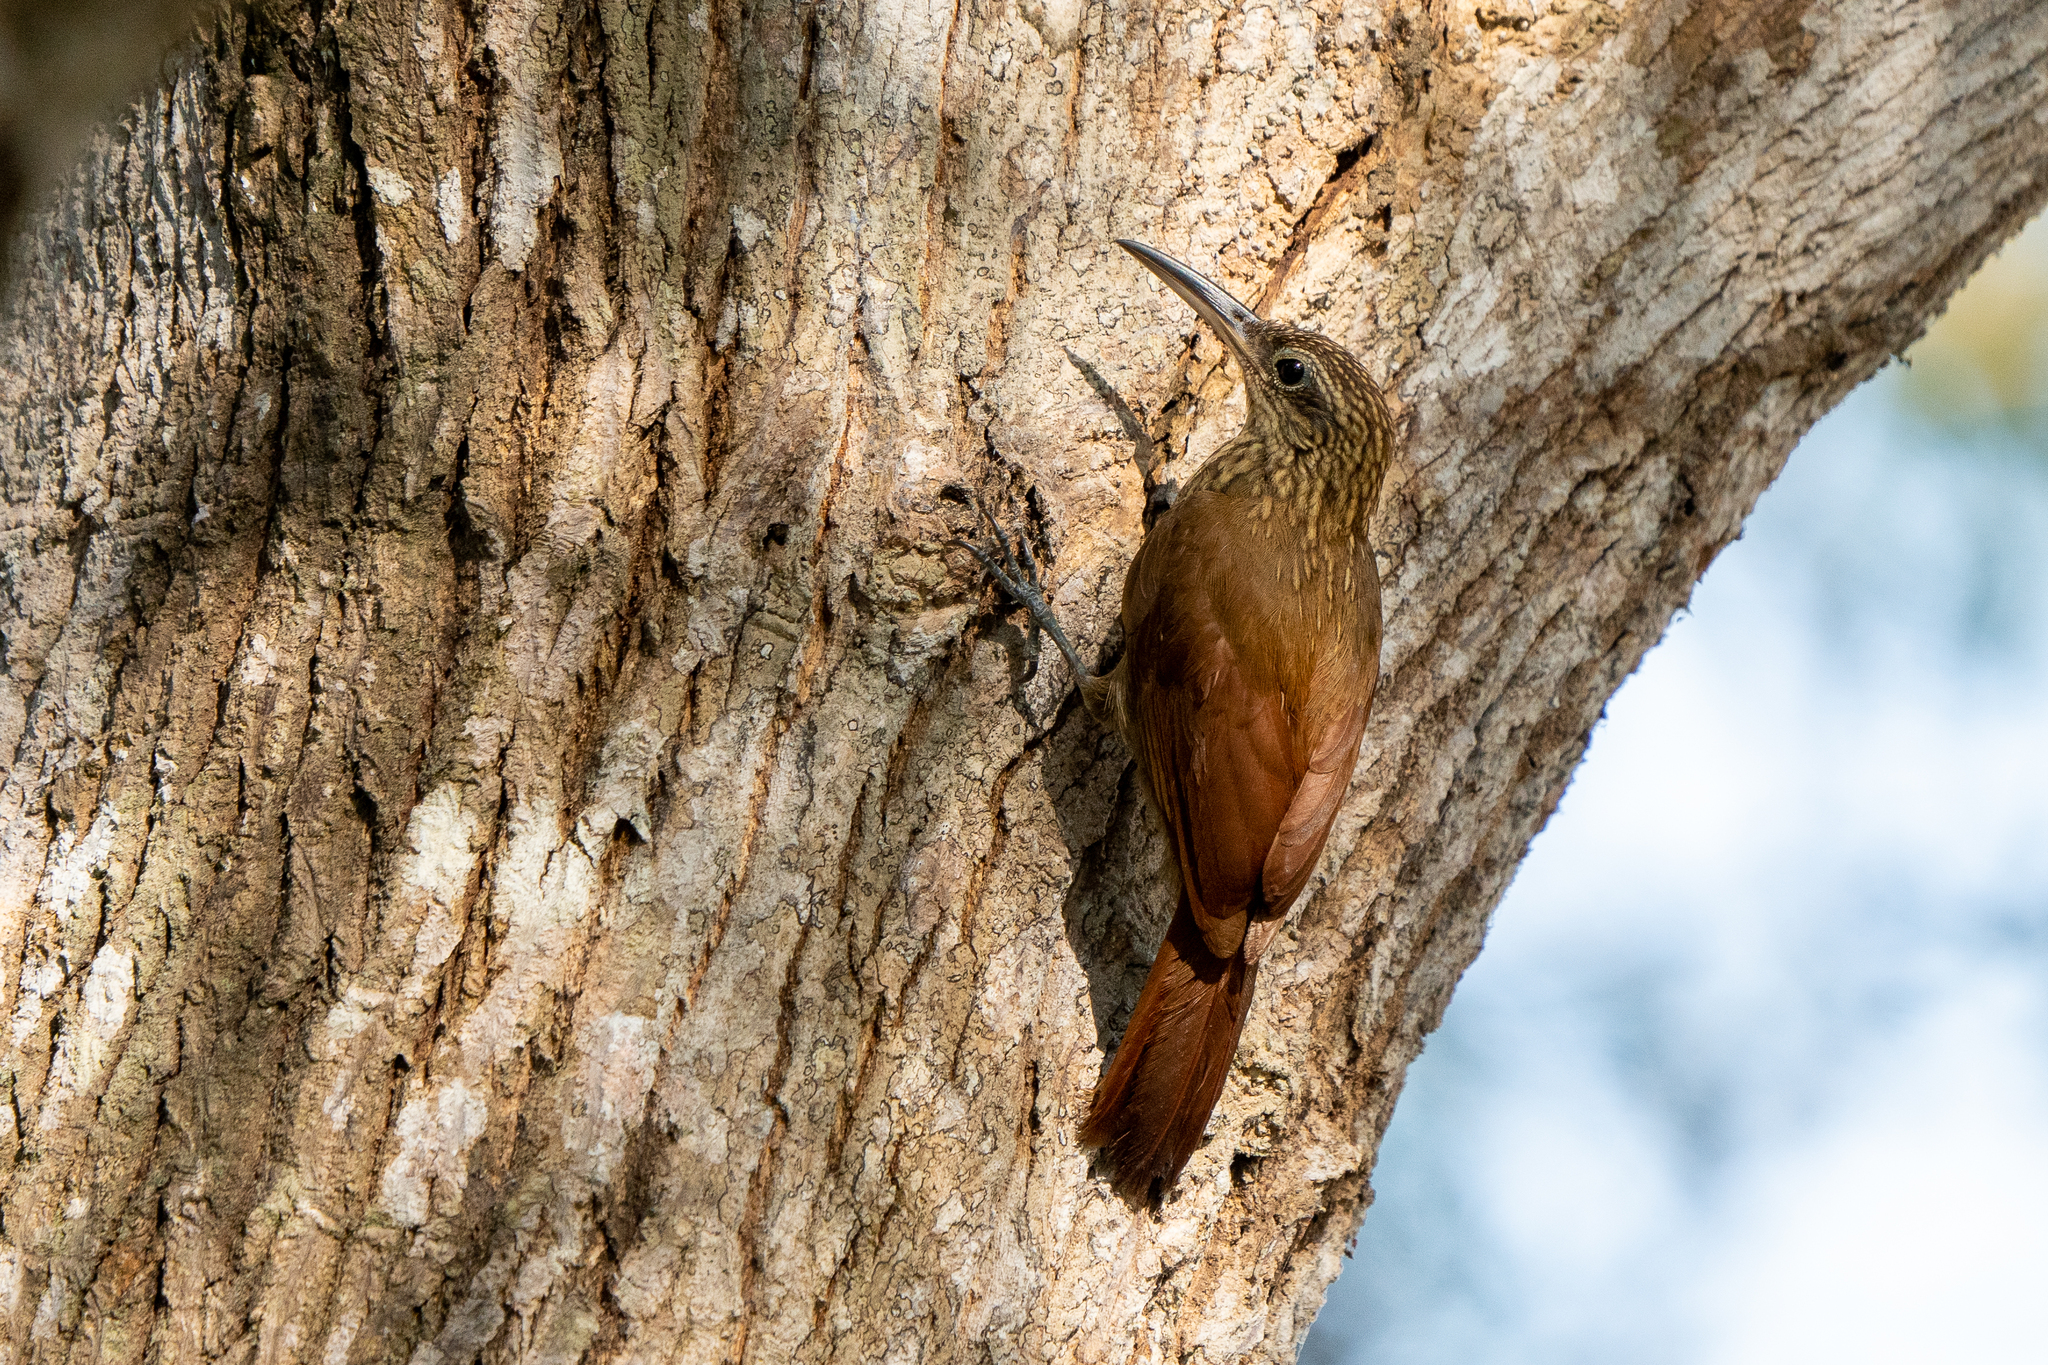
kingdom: Animalia
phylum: Chordata
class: Aves
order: Passeriformes
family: Furnariidae
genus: Xiphorhynchus
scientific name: Xiphorhynchus susurrans
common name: Cocoa woodcreeper
